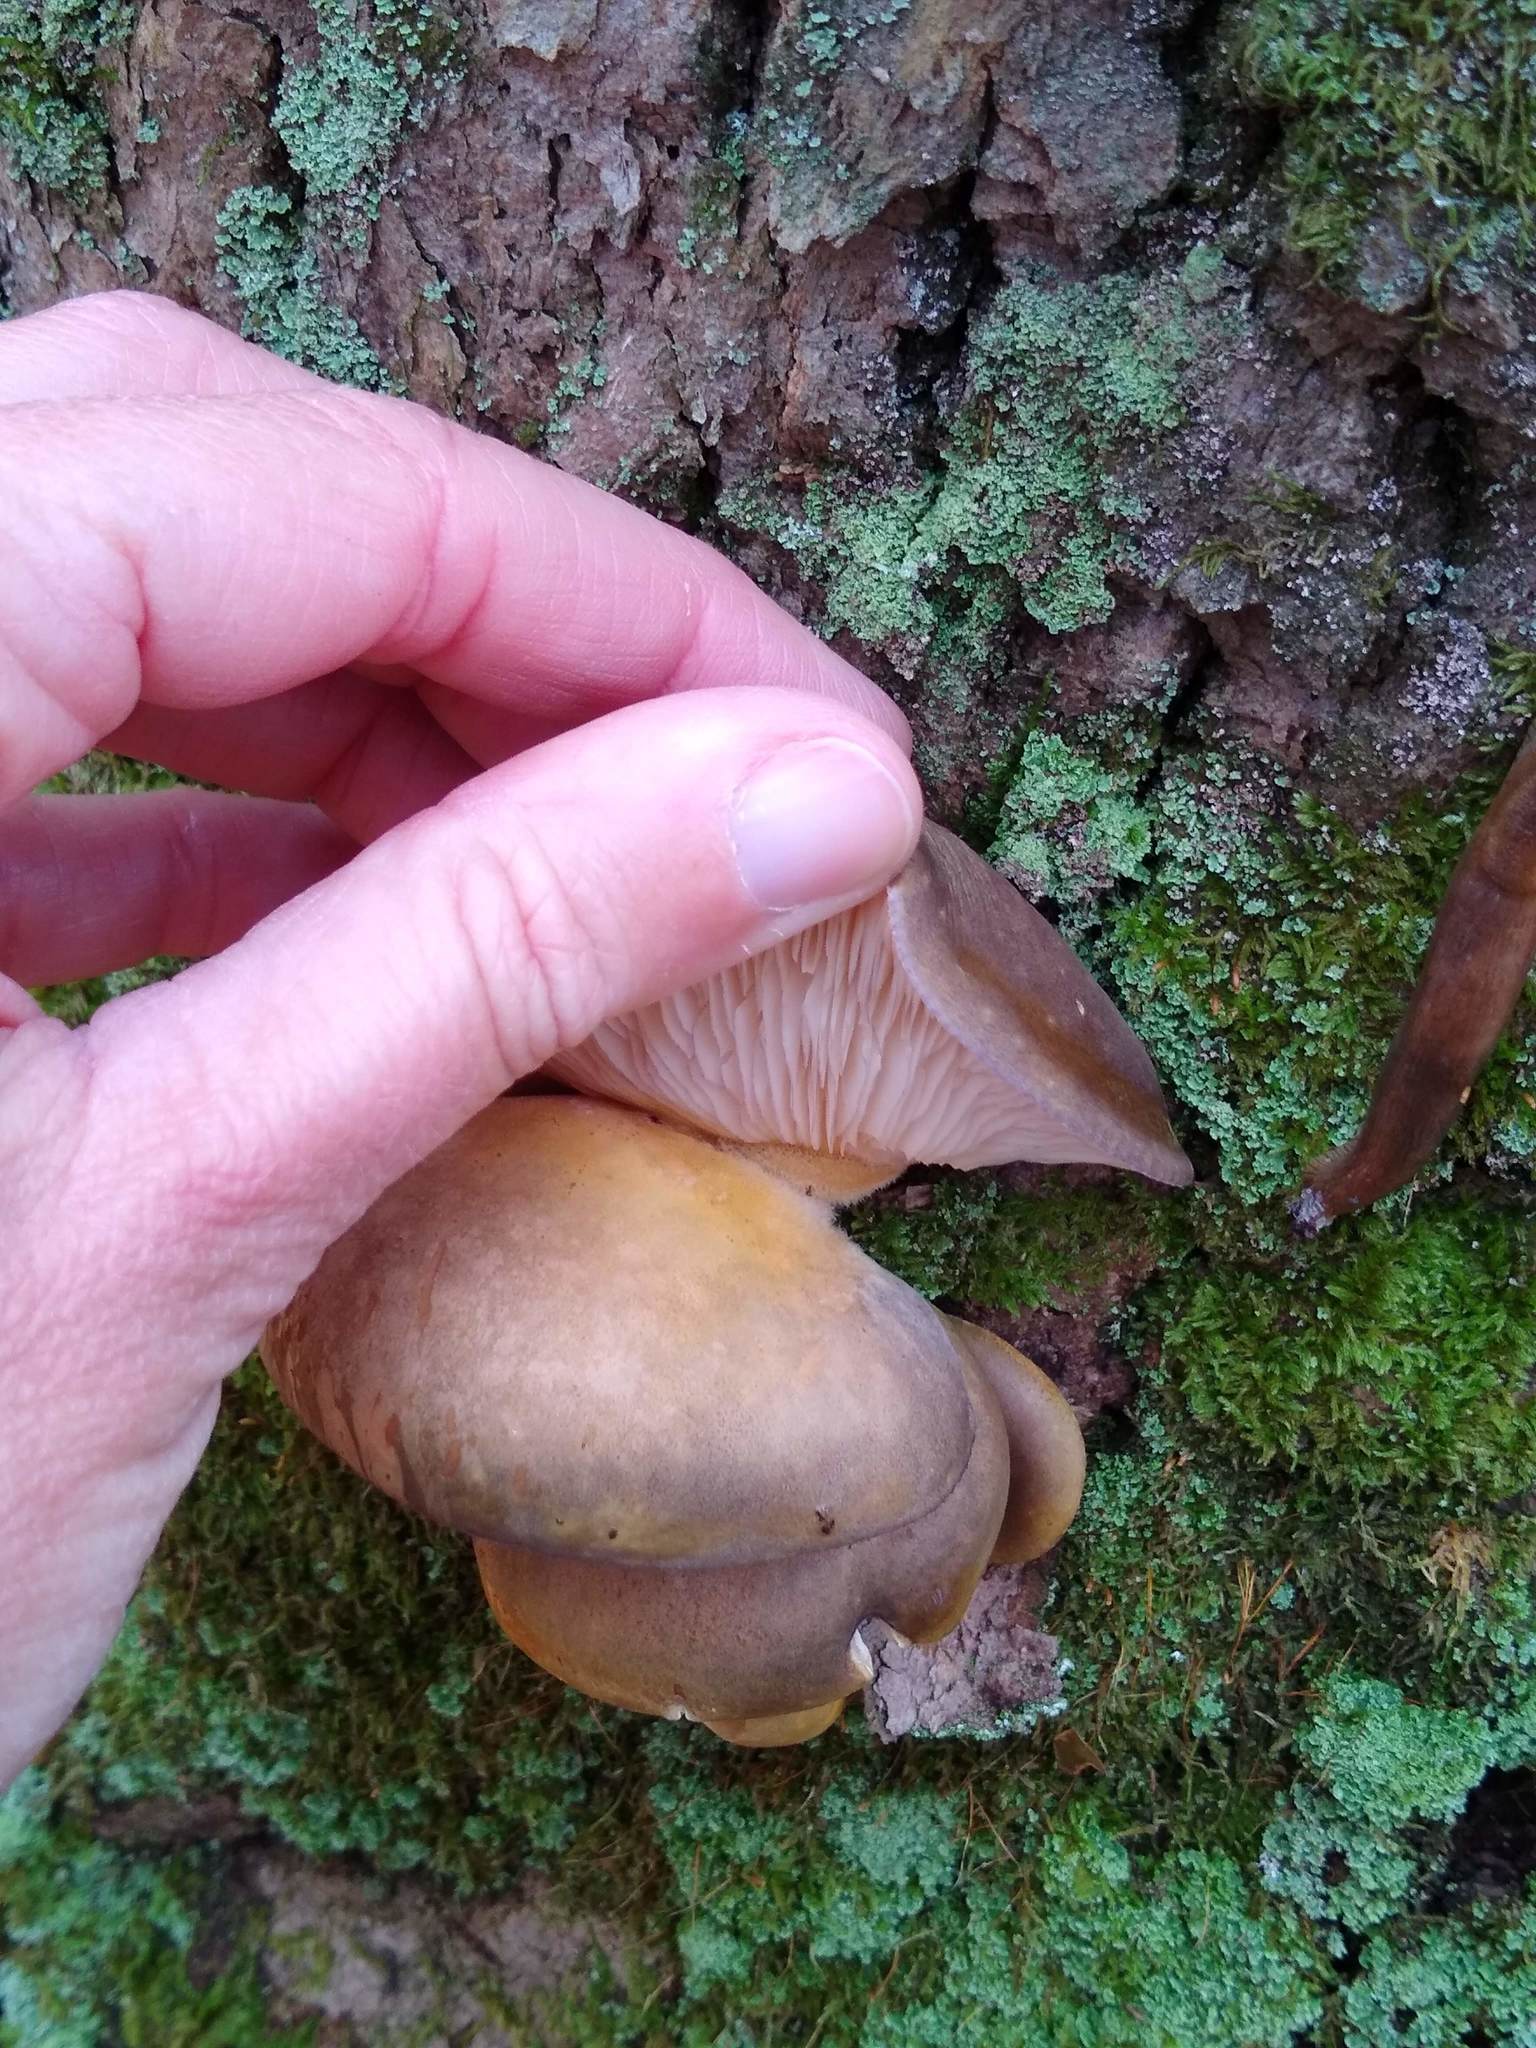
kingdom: Fungi
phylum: Basidiomycota
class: Agaricomycetes
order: Agaricales
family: Sarcomyxaceae
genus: Sarcomyxa
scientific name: Sarcomyxa serotina
